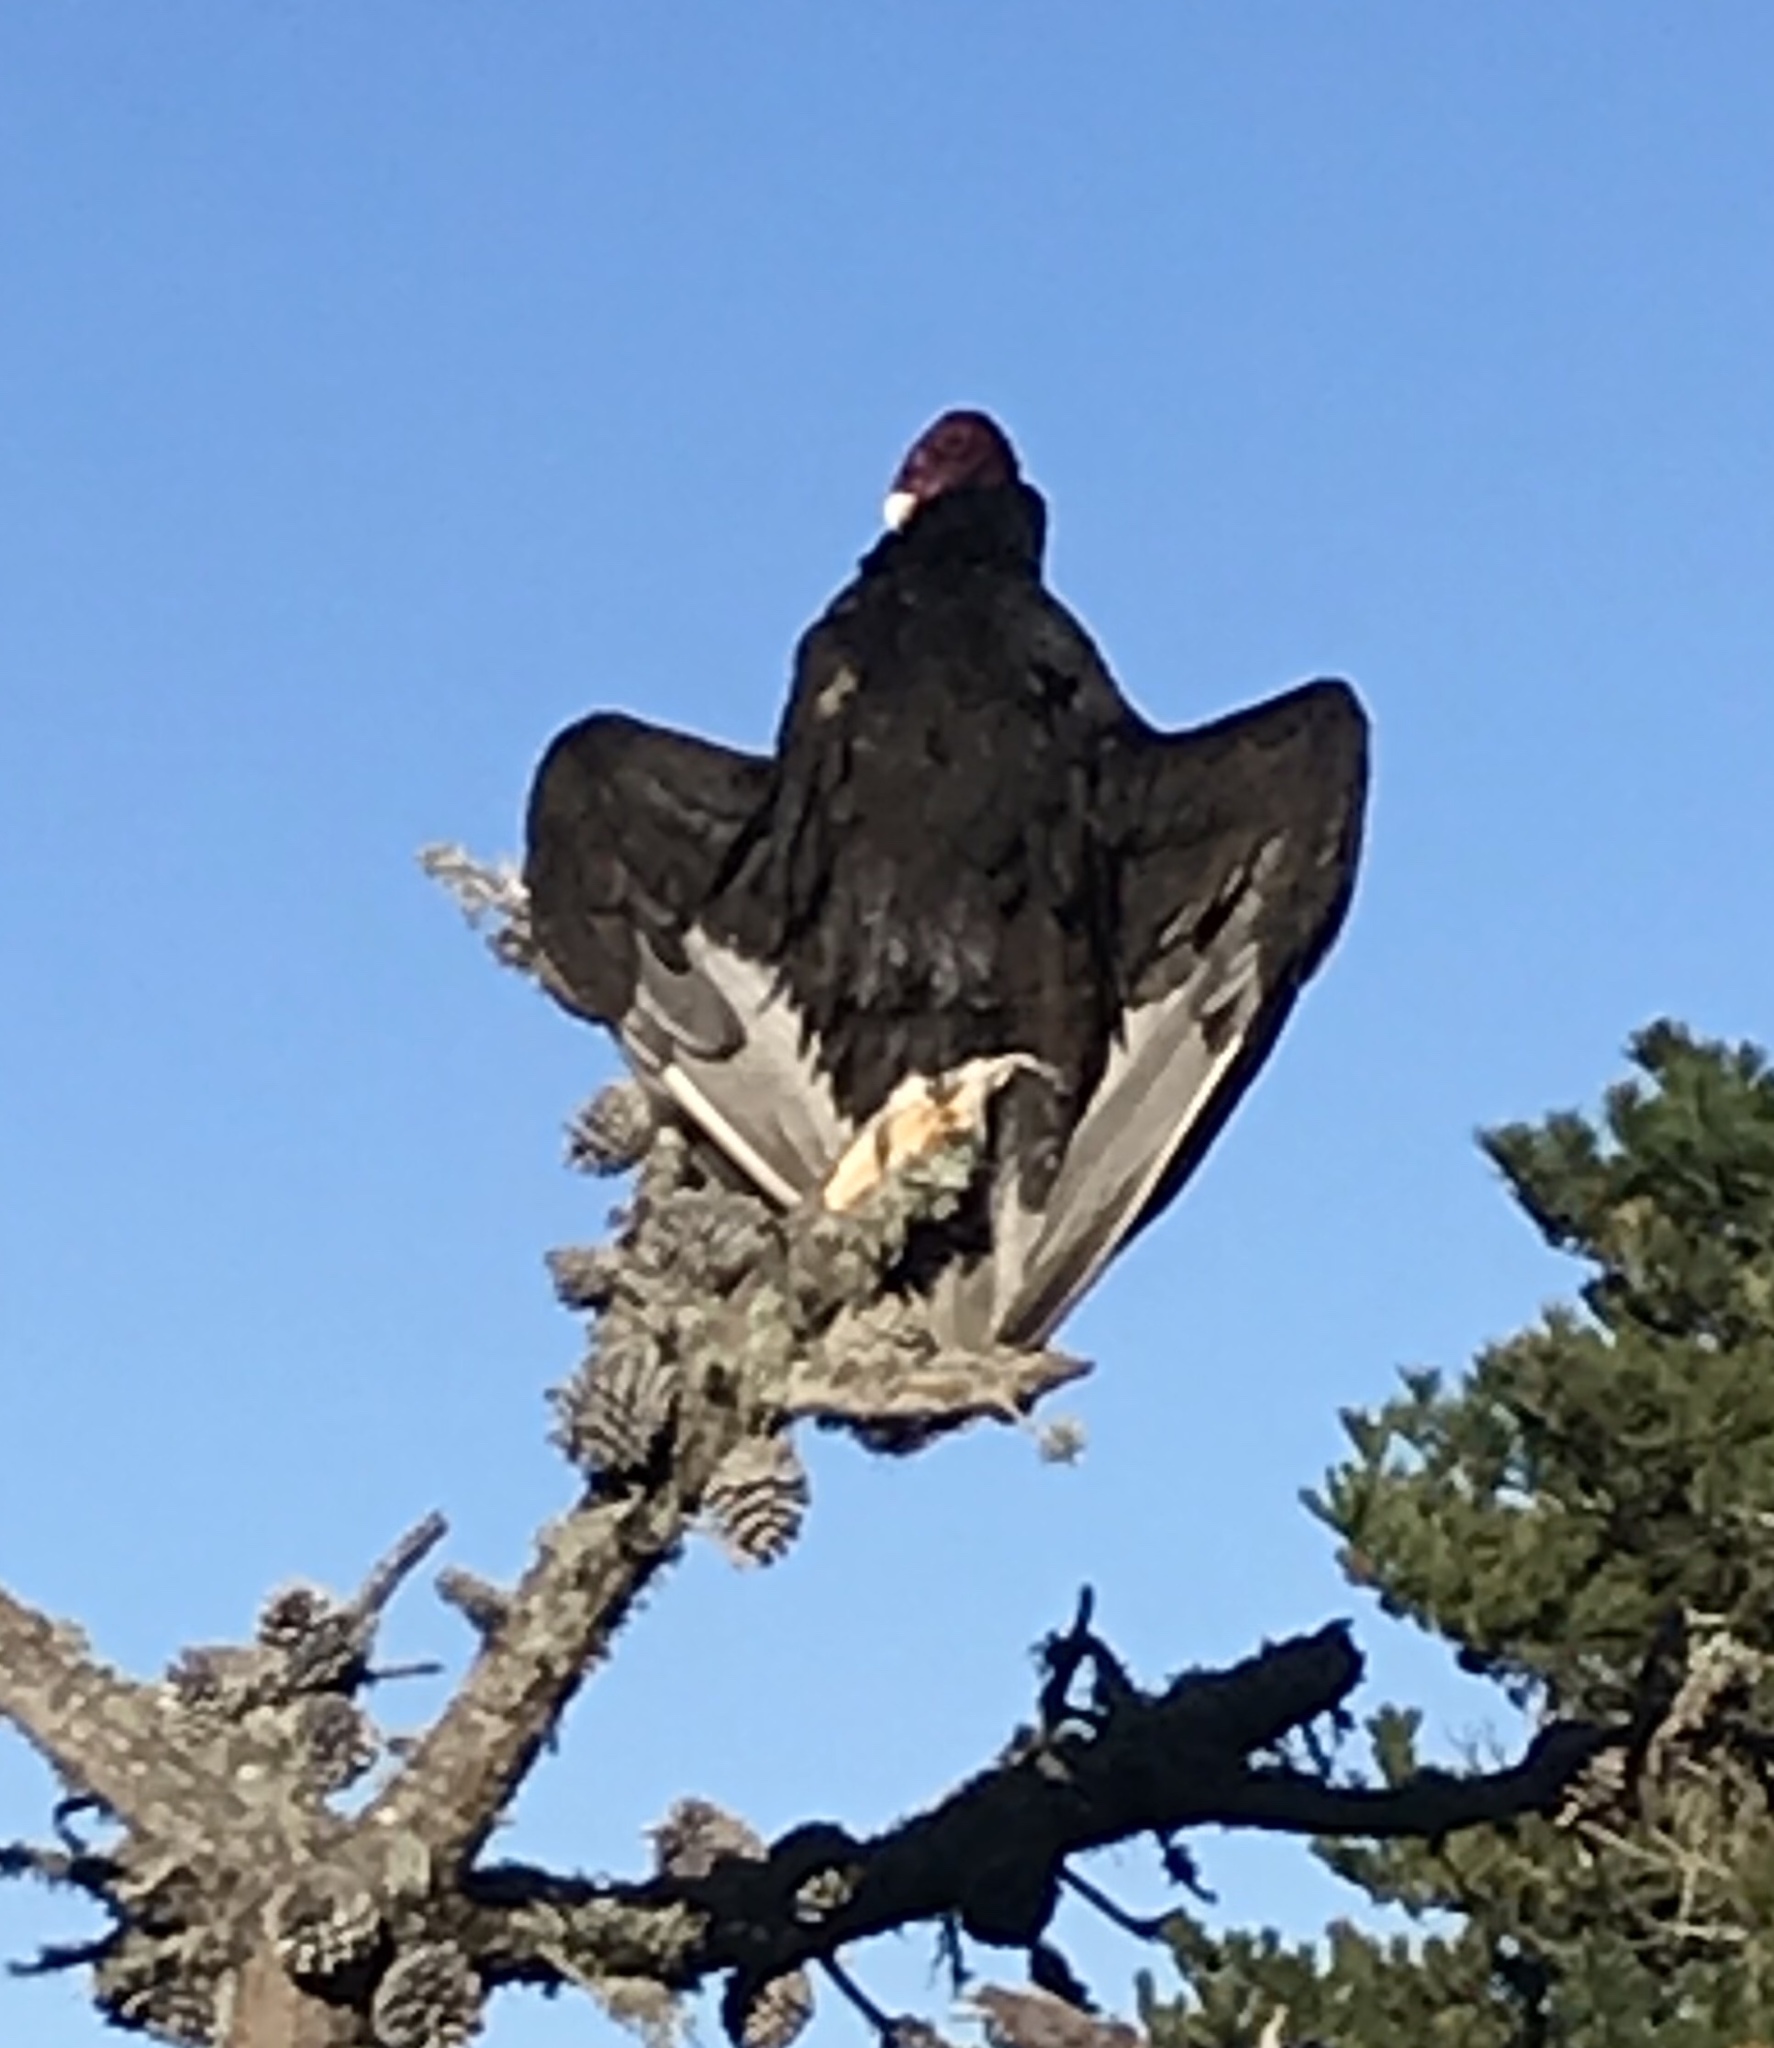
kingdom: Animalia
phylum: Chordata
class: Aves
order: Accipitriformes
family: Cathartidae
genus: Cathartes
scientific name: Cathartes aura
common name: Turkey vulture
